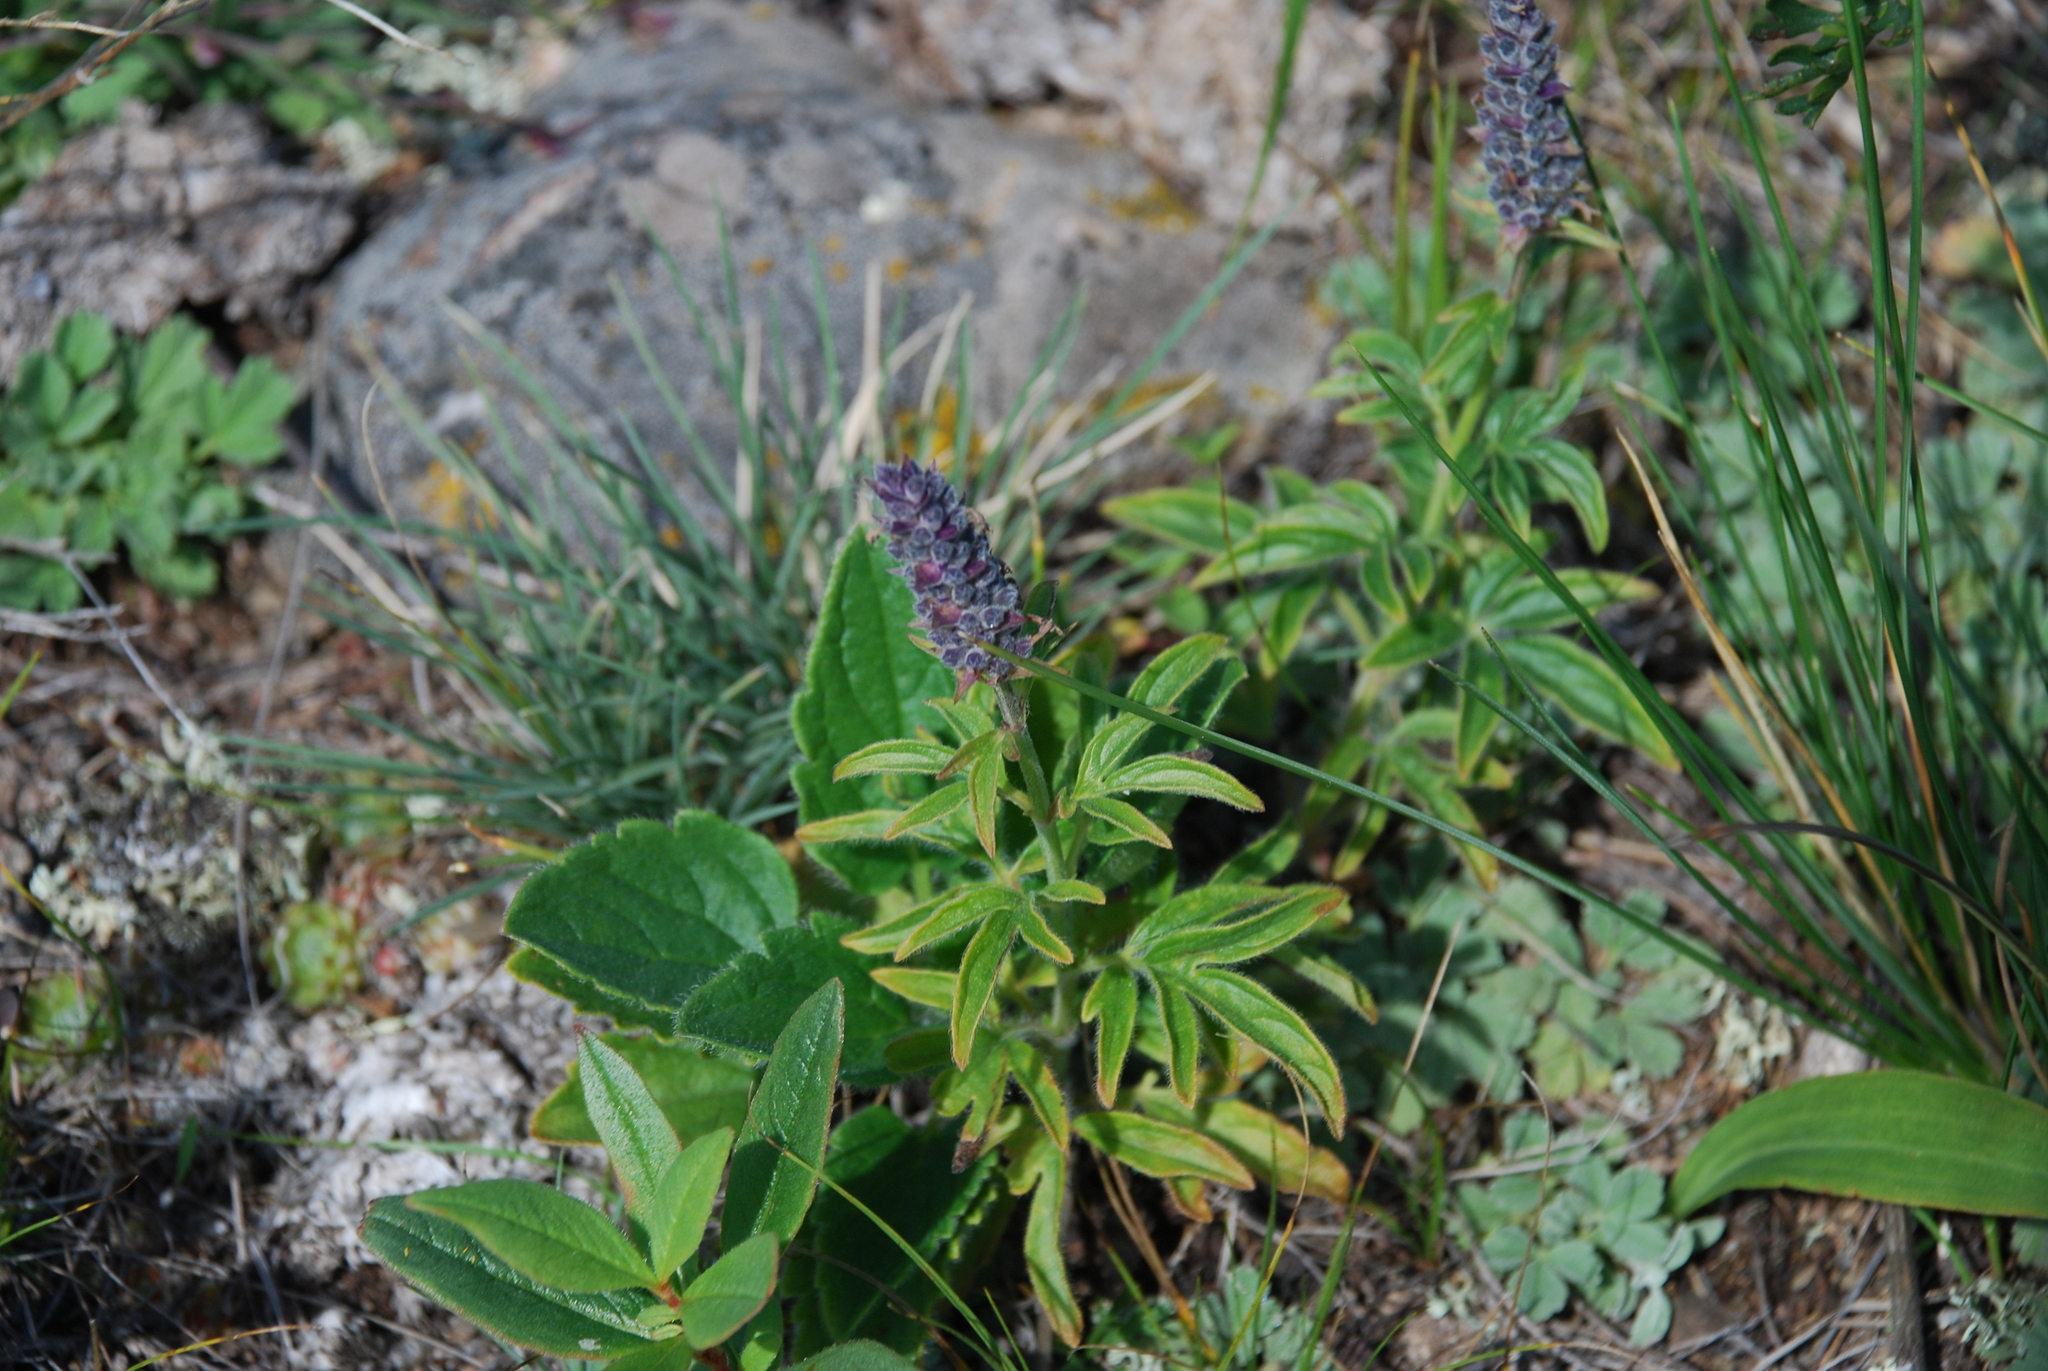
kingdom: Plantae
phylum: Tracheophyta
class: Magnoliopsida
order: Lamiales
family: Lamiaceae
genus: Nepeta
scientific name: Nepeta multifida
